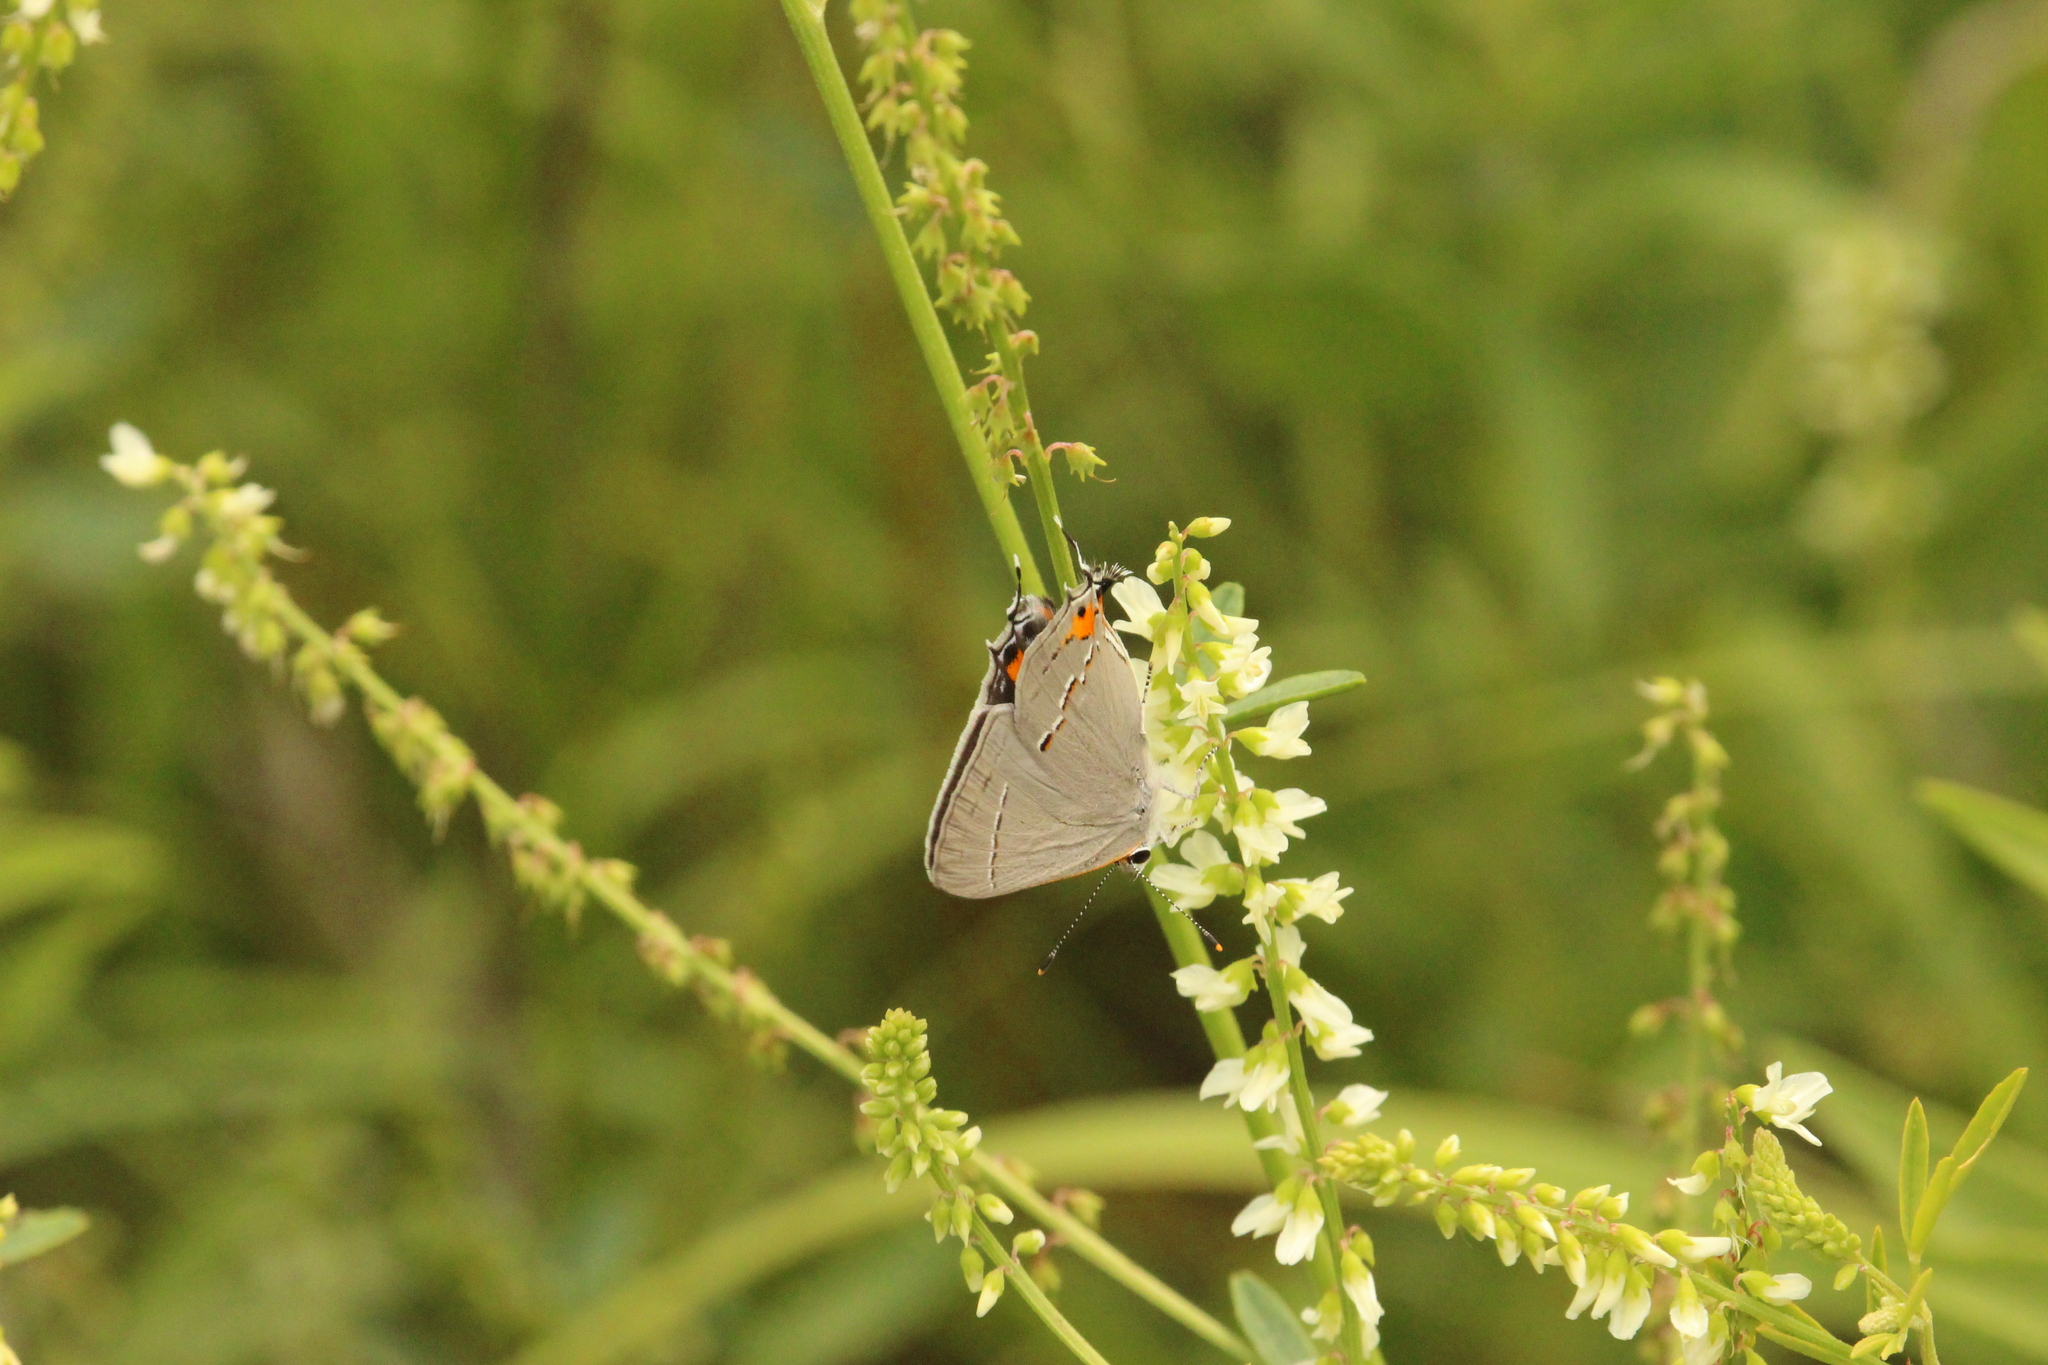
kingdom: Animalia
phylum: Arthropoda
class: Insecta
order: Lepidoptera
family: Lycaenidae
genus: Strymon
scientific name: Strymon melinus
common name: Gray hairstreak
